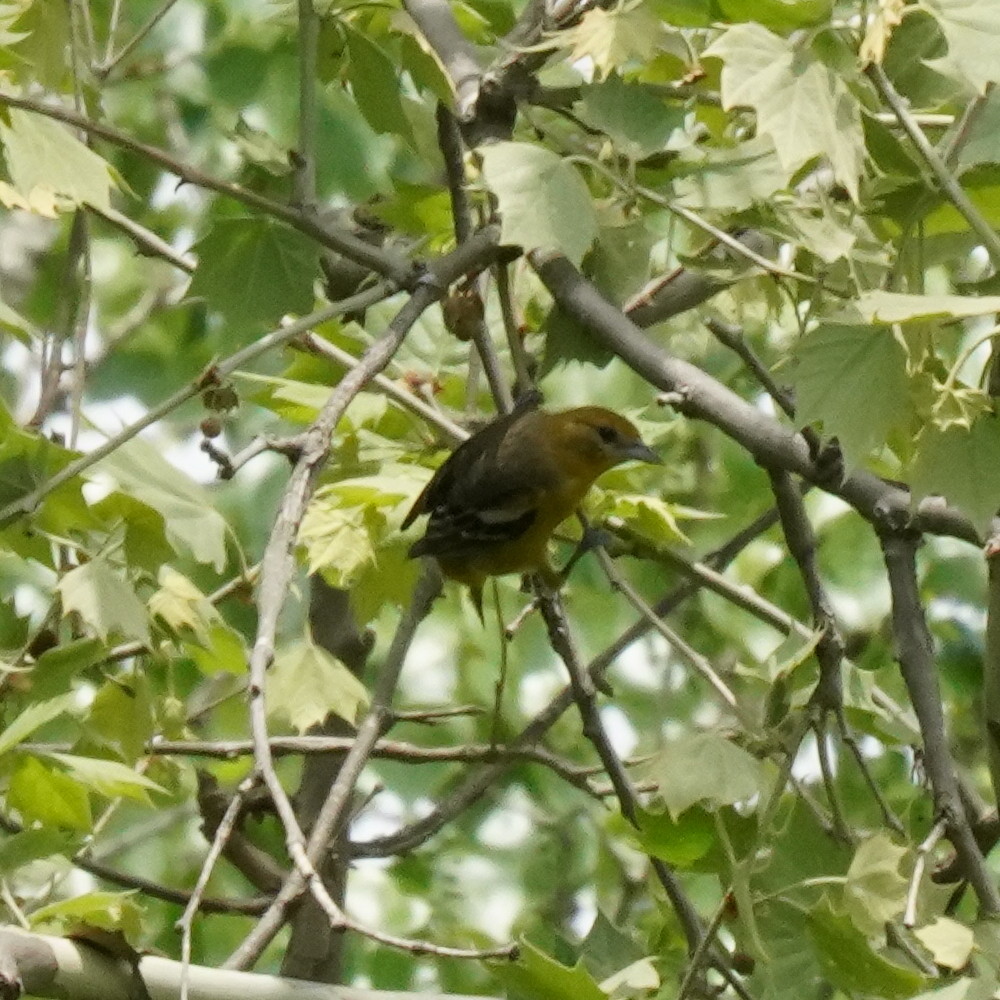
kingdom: Animalia
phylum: Chordata
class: Aves
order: Passeriformes
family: Icteridae
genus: Icterus
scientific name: Icterus galbula
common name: Baltimore oriole
